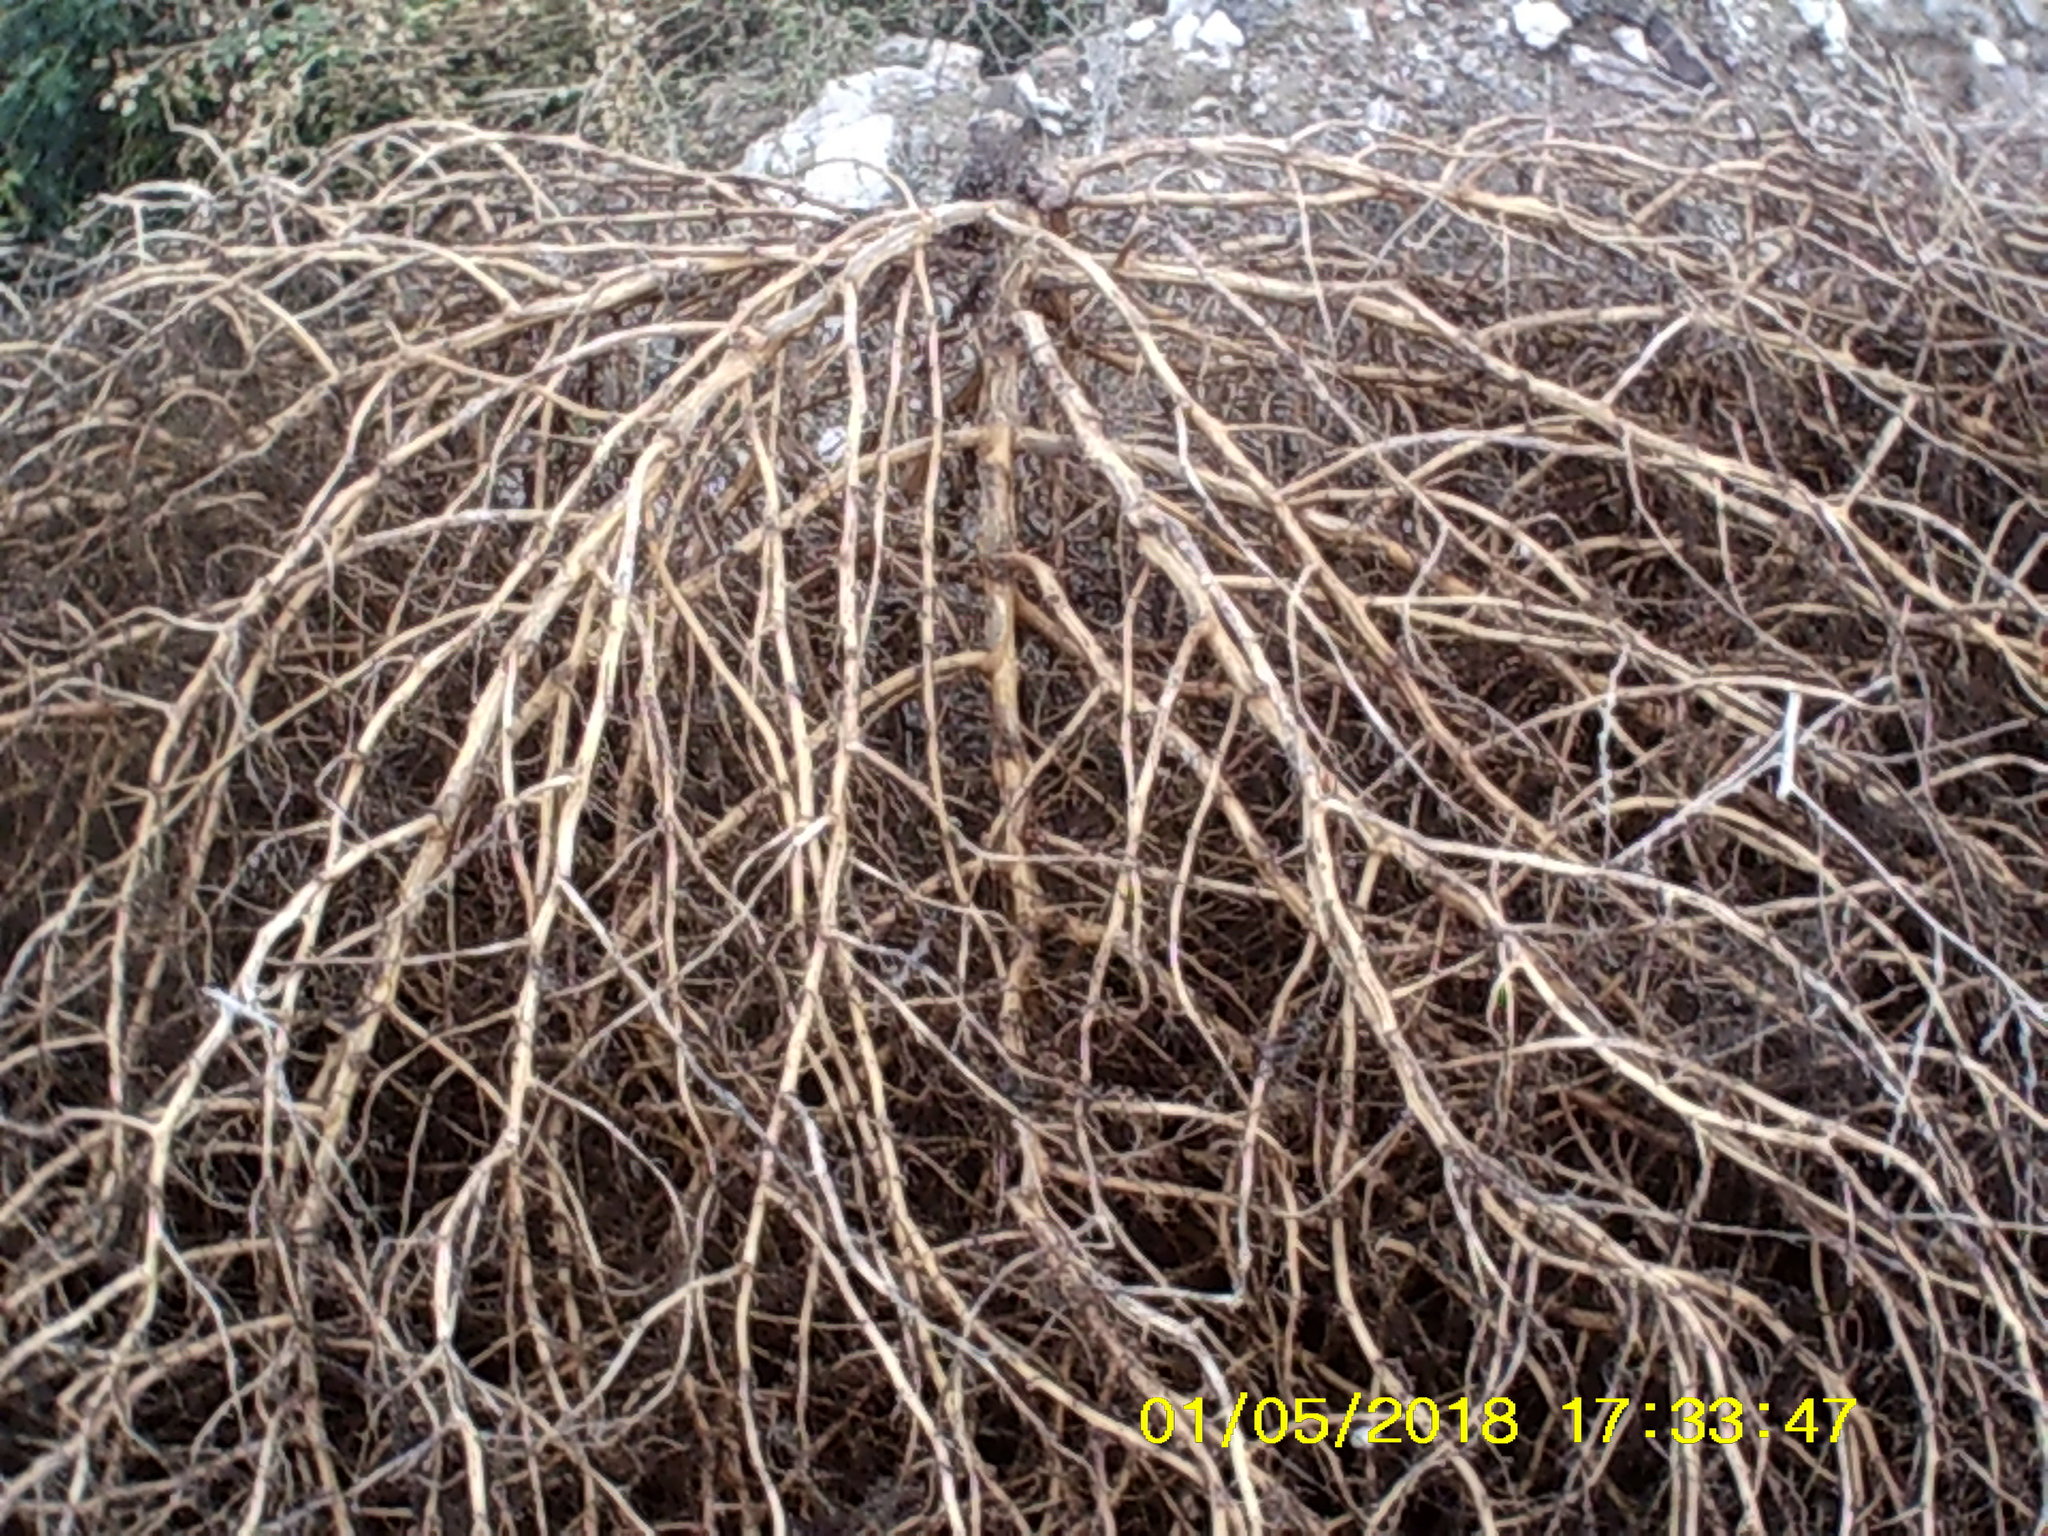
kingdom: Plantae
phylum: Tracheophyta
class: Magnoliopsida
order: Caryophyllales
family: Amaranthaceae
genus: Salsola
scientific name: Salsola tragus
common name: Prickly russian thistle
